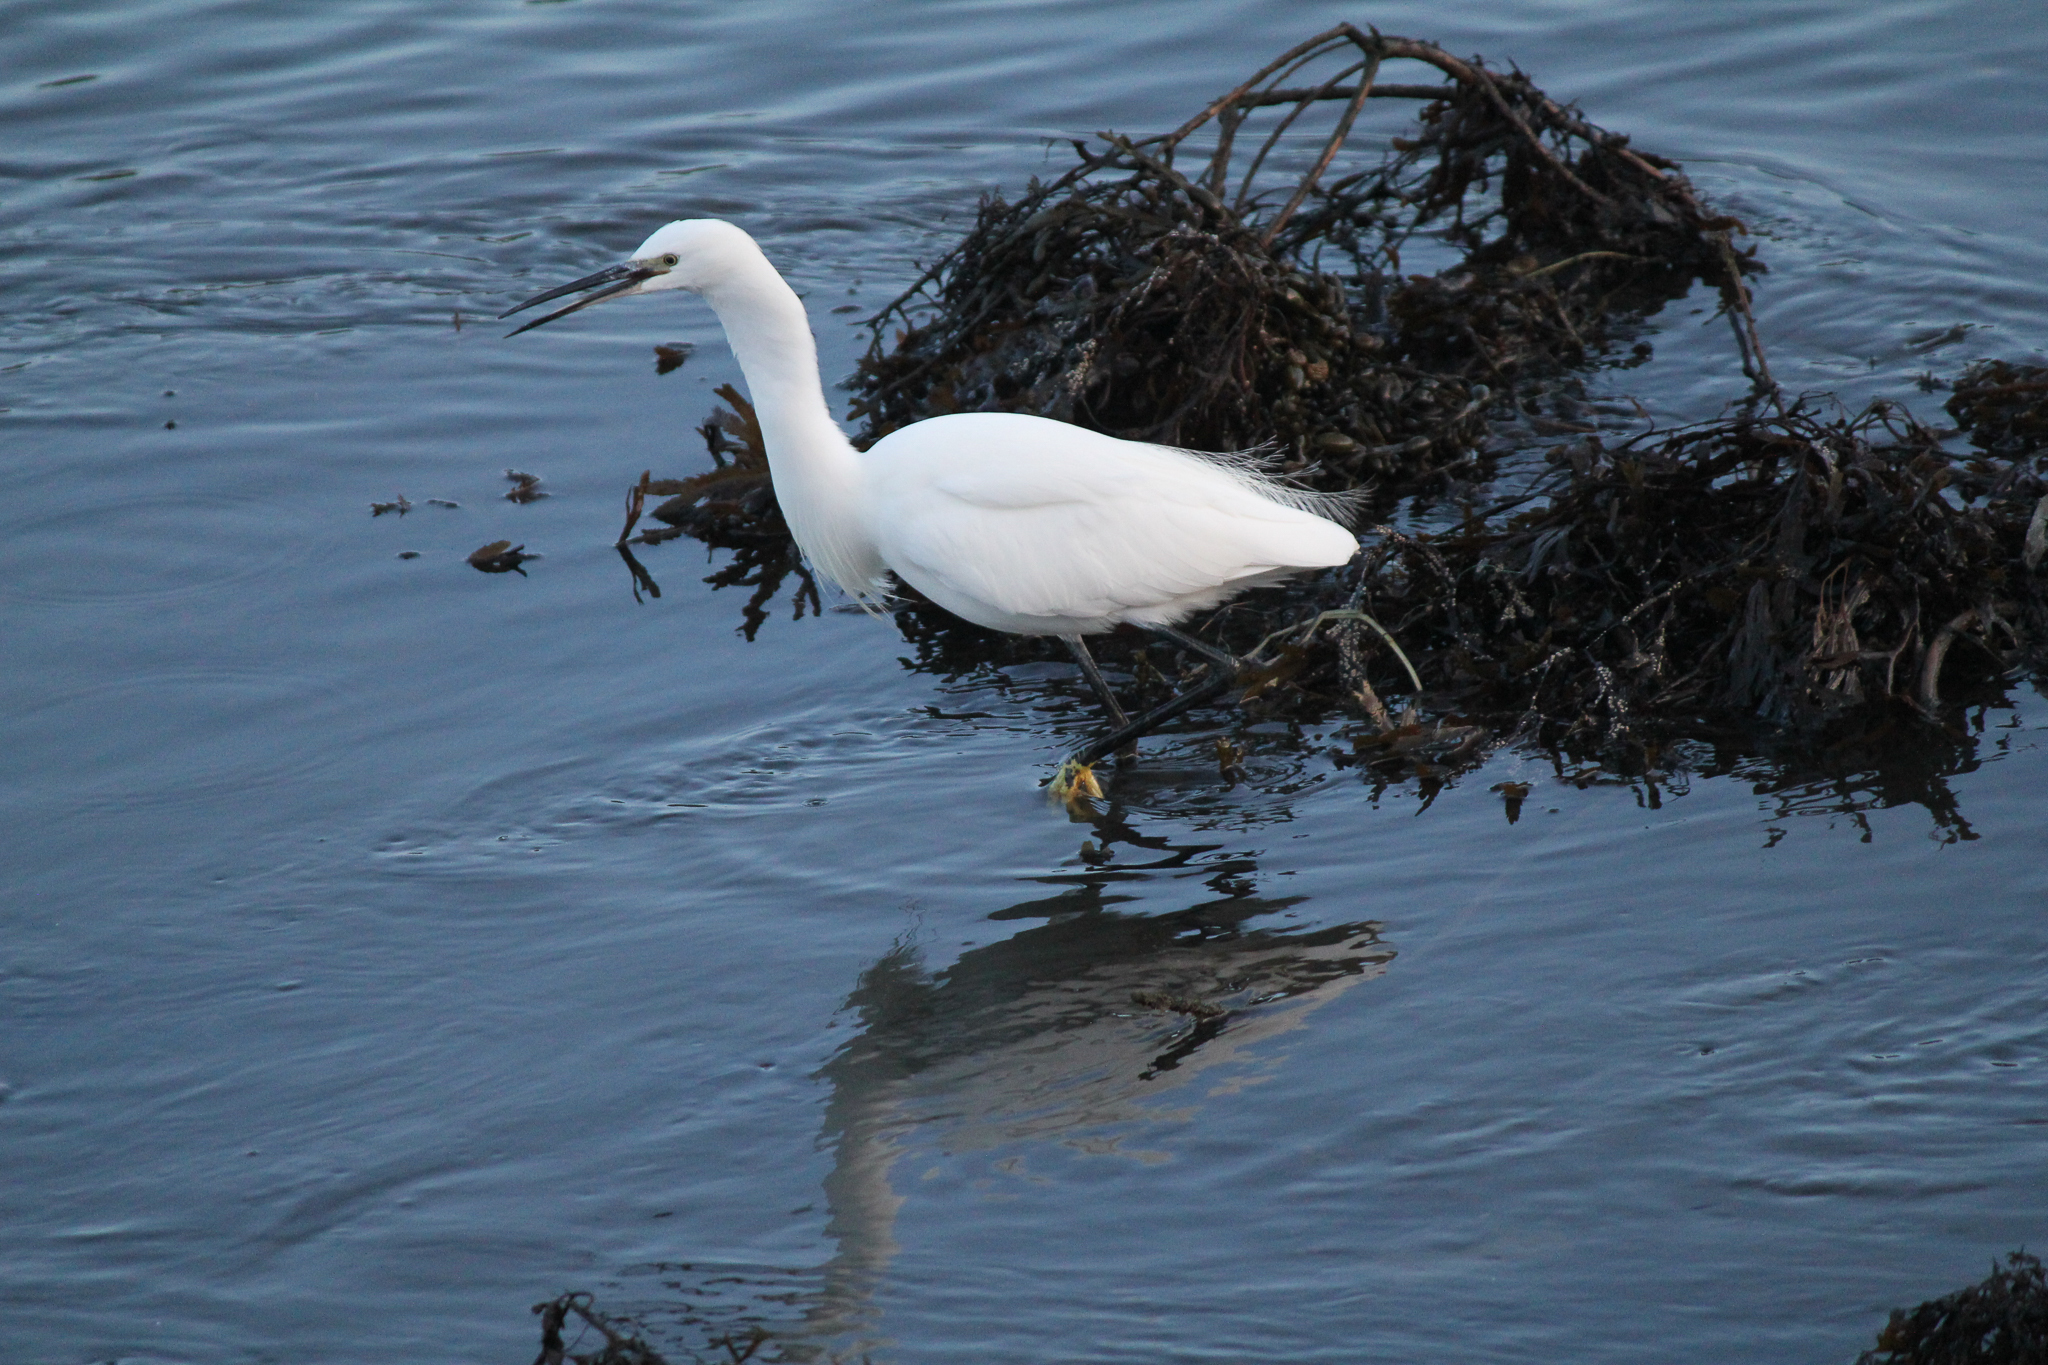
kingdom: Animalia
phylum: Chordata
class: Aves
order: Pelecaniformes
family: Ardeidae
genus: Egretta
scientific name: Egretta garzetta
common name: Little egret
